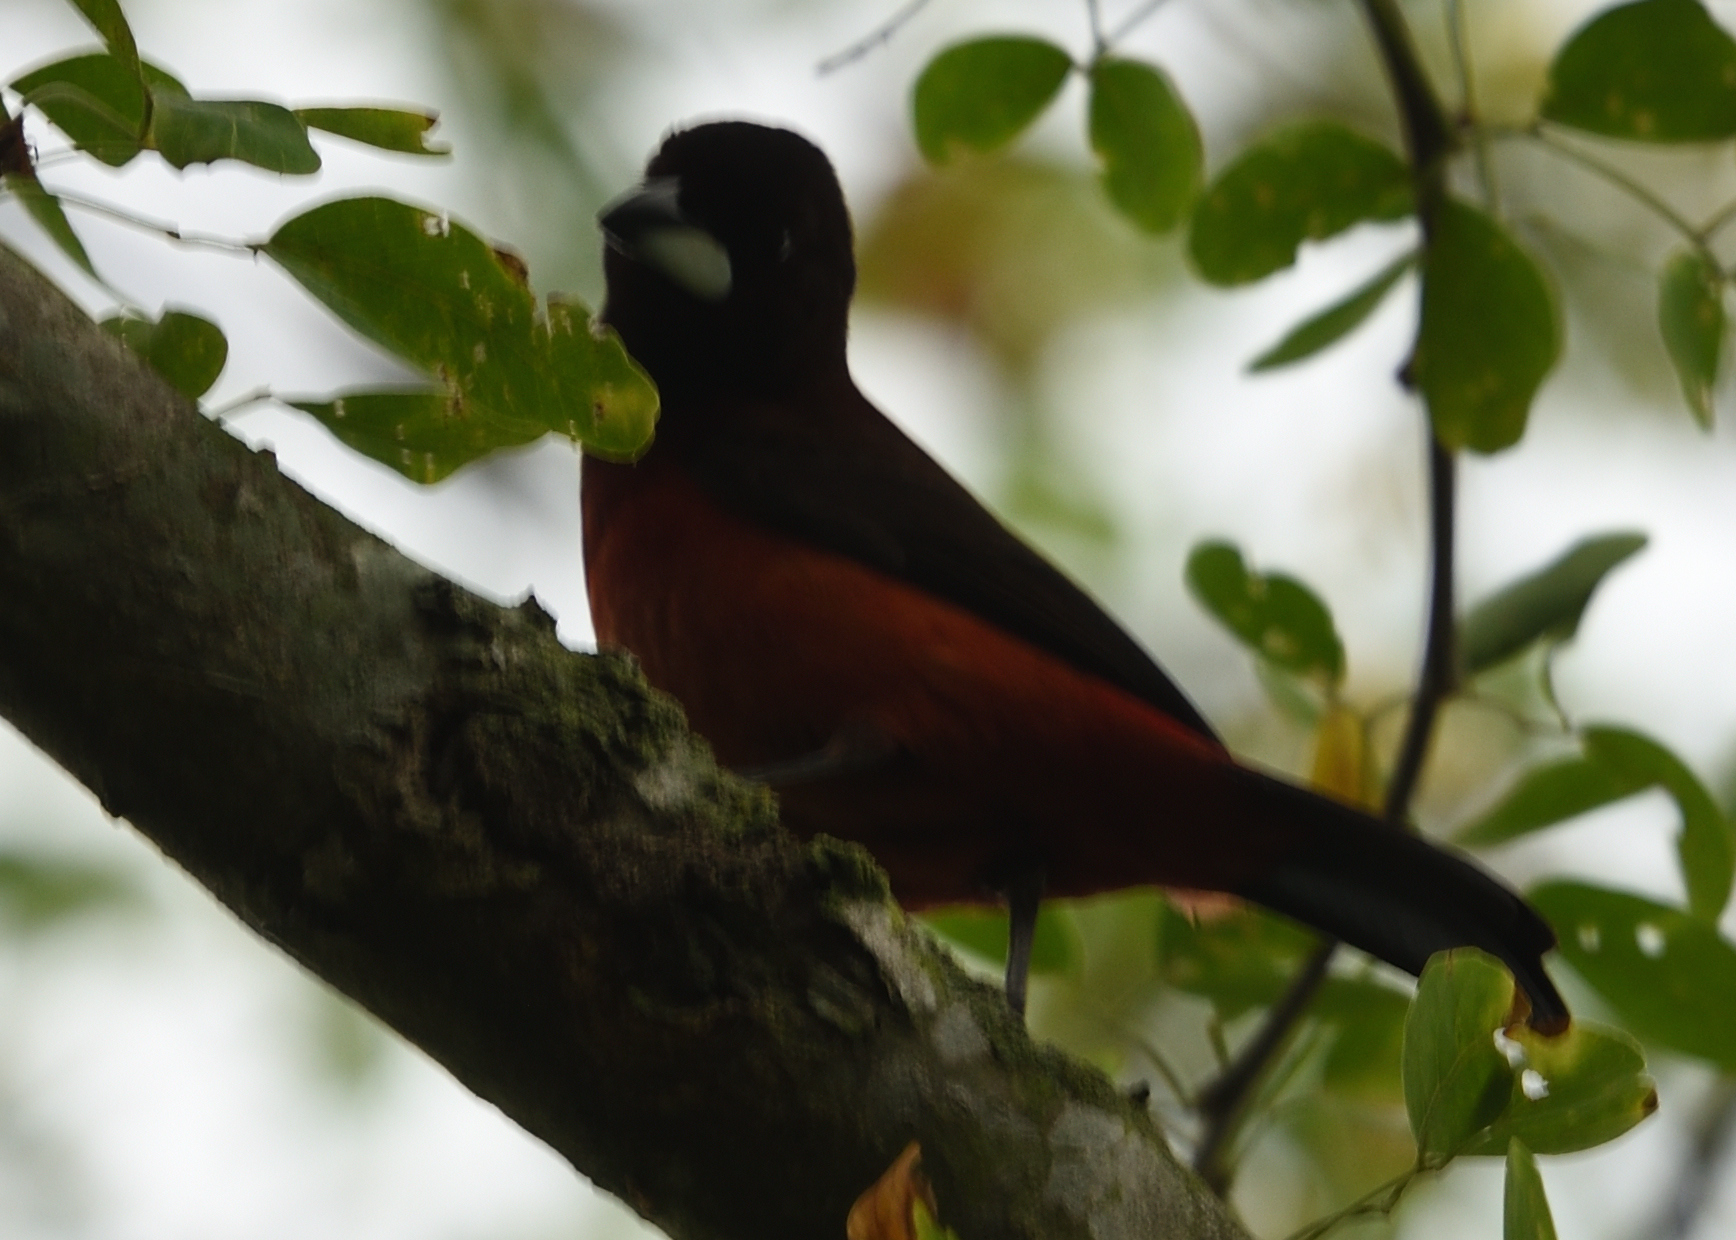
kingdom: Animalia
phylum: Chordata
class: Aves
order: Passeriformes
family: Thraupidae
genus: Ramphocelus
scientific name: Ramphocelus dimidiatus
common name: Crimson-backed tanager
